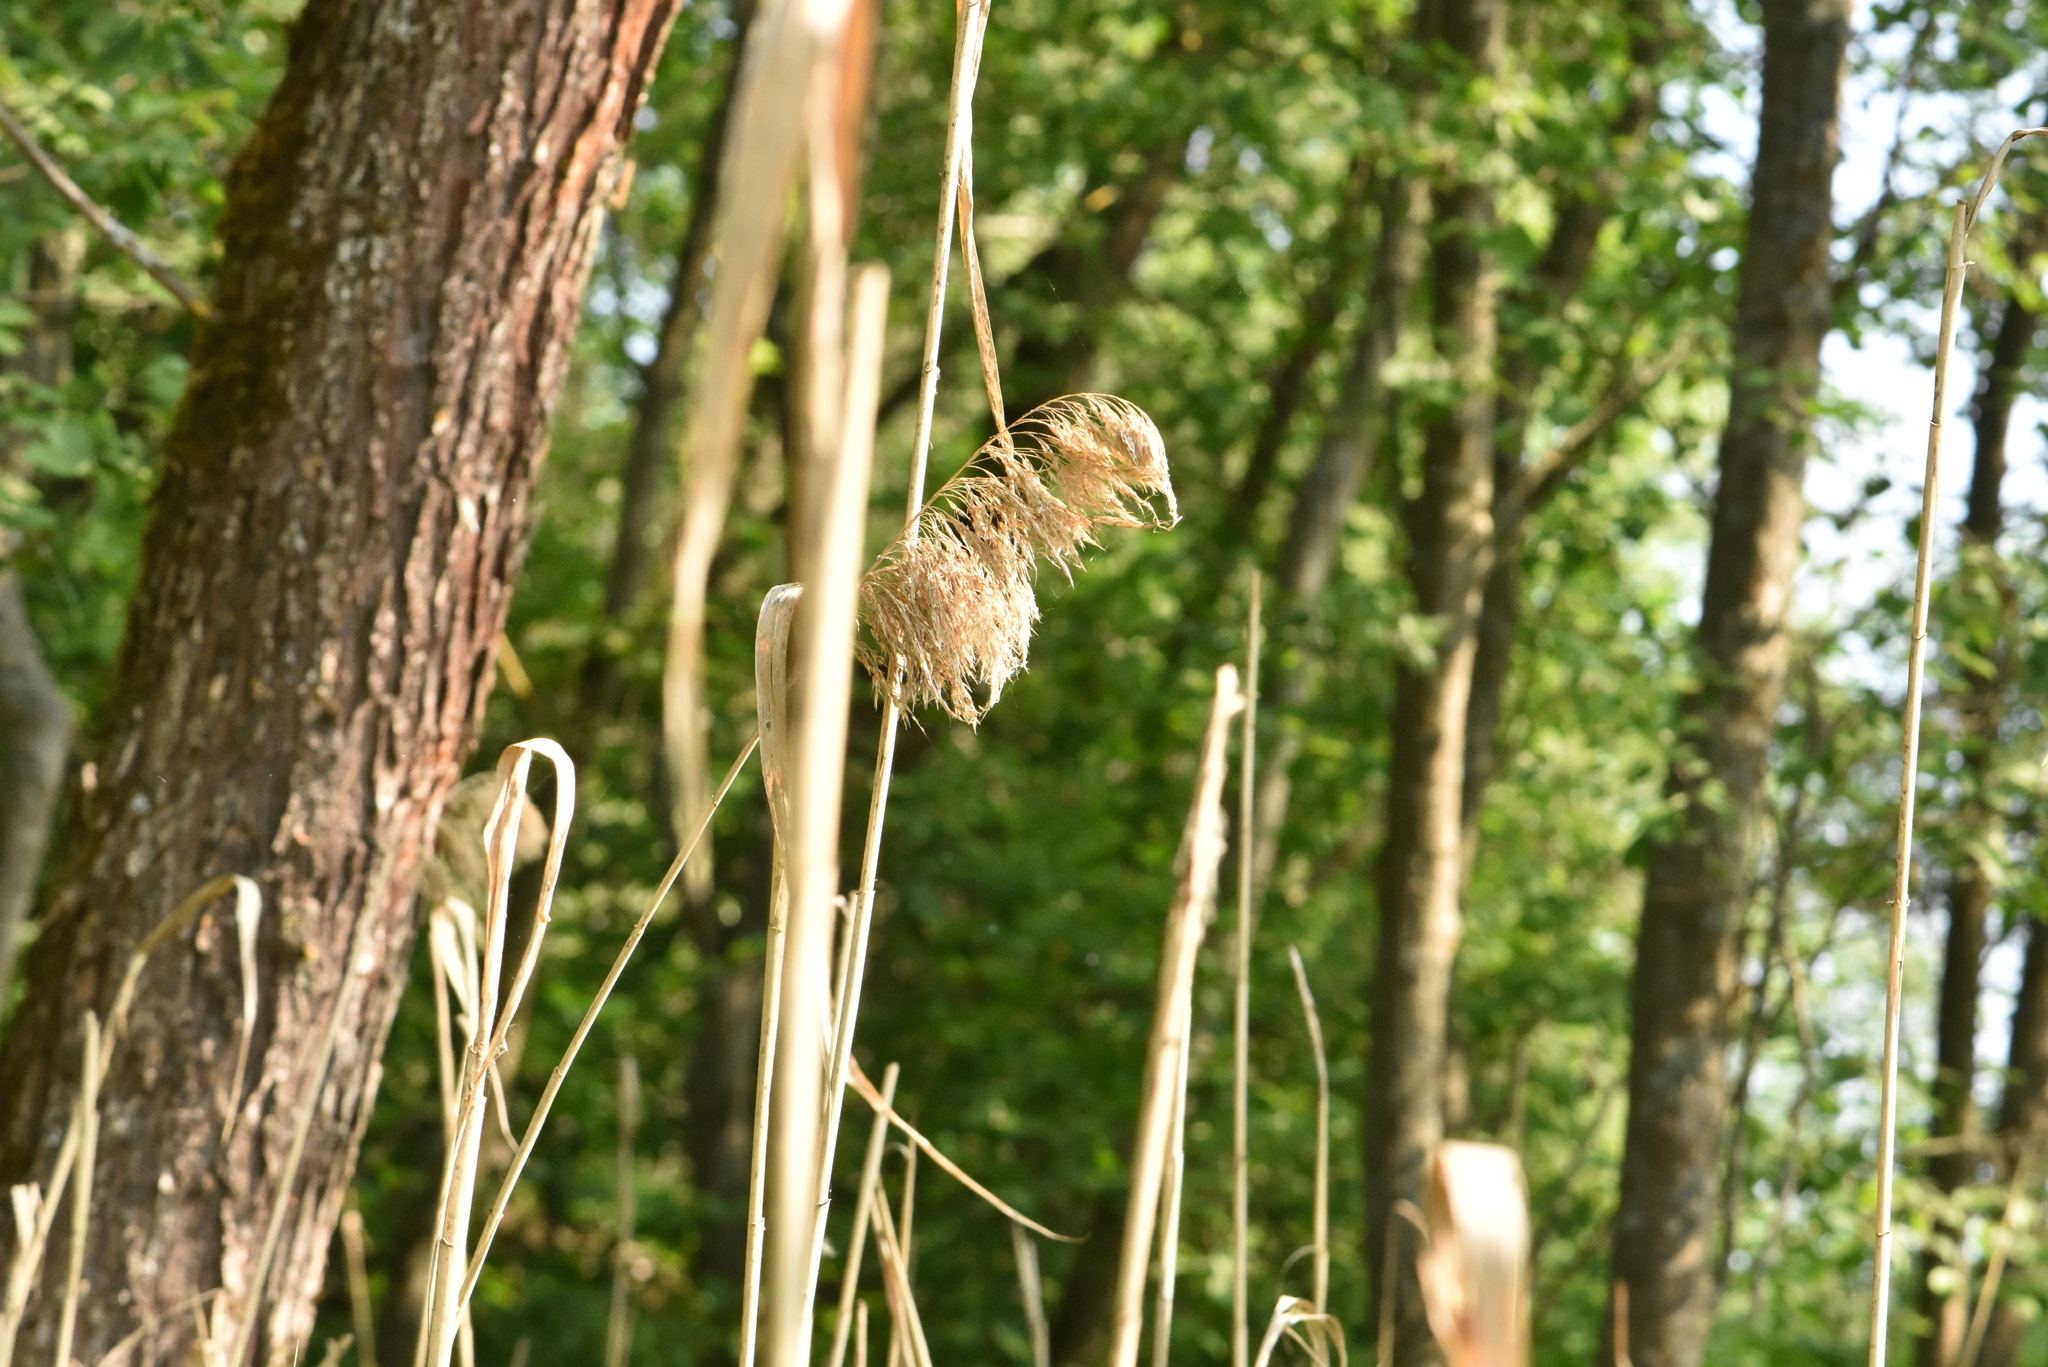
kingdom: Plantae
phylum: Tracheophyta
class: Liliopsida
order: Poales
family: Poaceae
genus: Phragmites
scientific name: Phragmites australis
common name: Common reed
